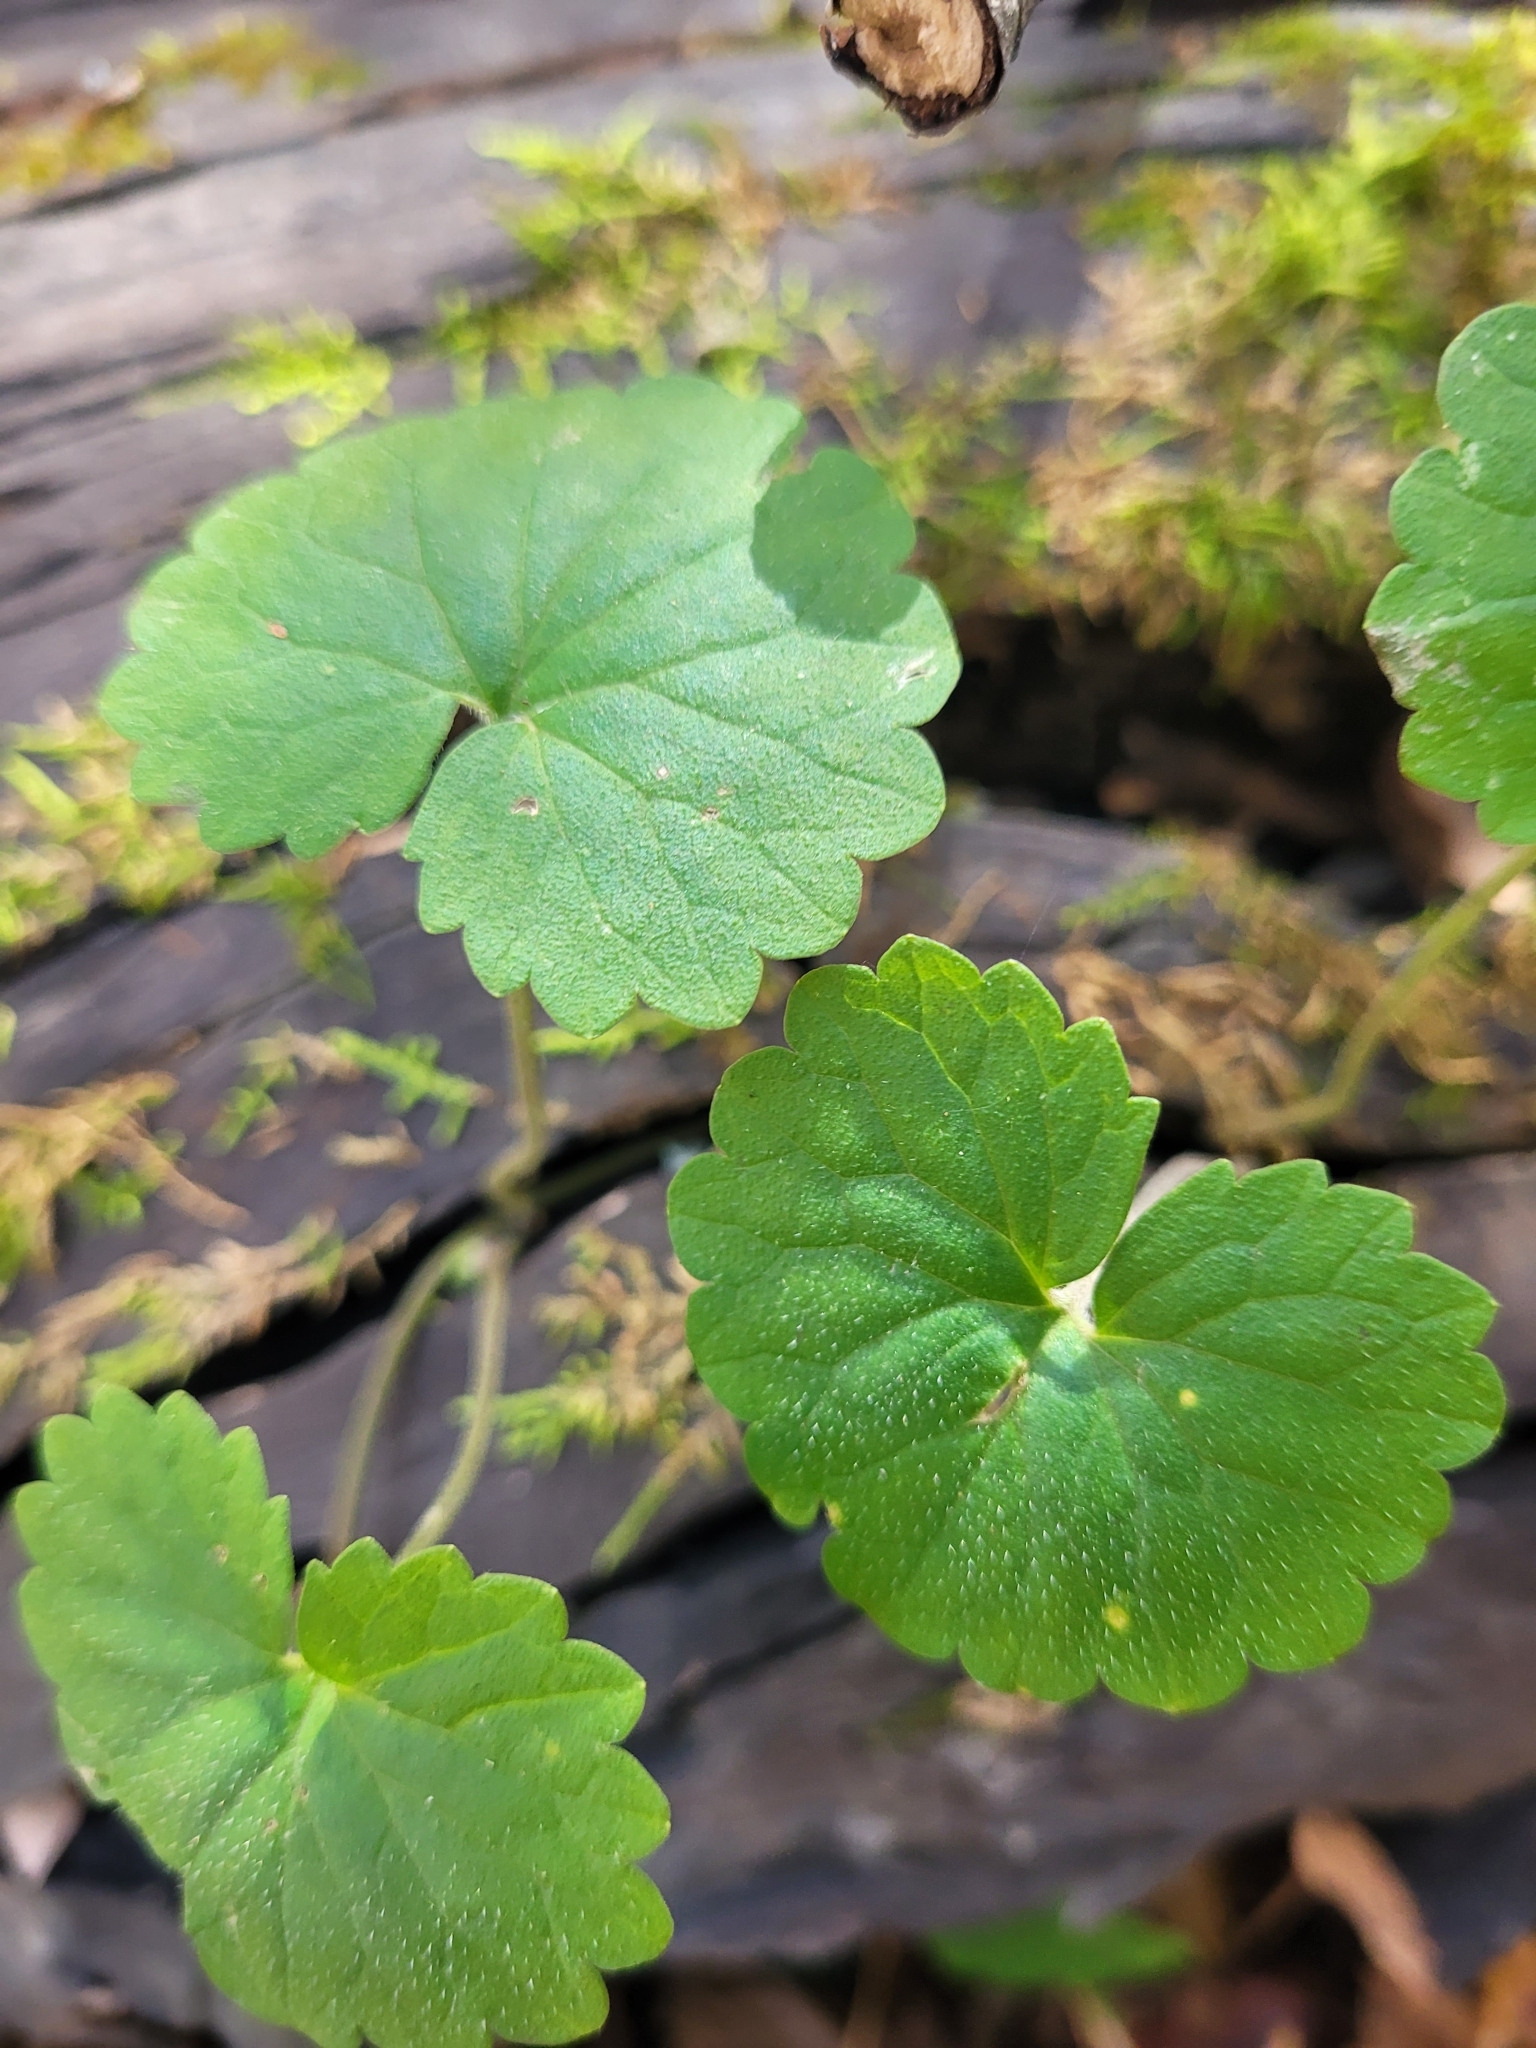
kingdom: Plantae
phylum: Tracheophyta
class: Magnoliopsida
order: Lamiales
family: Lamiaceae
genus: Glechoma
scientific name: Glechoma hederacea
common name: Ground ivy
